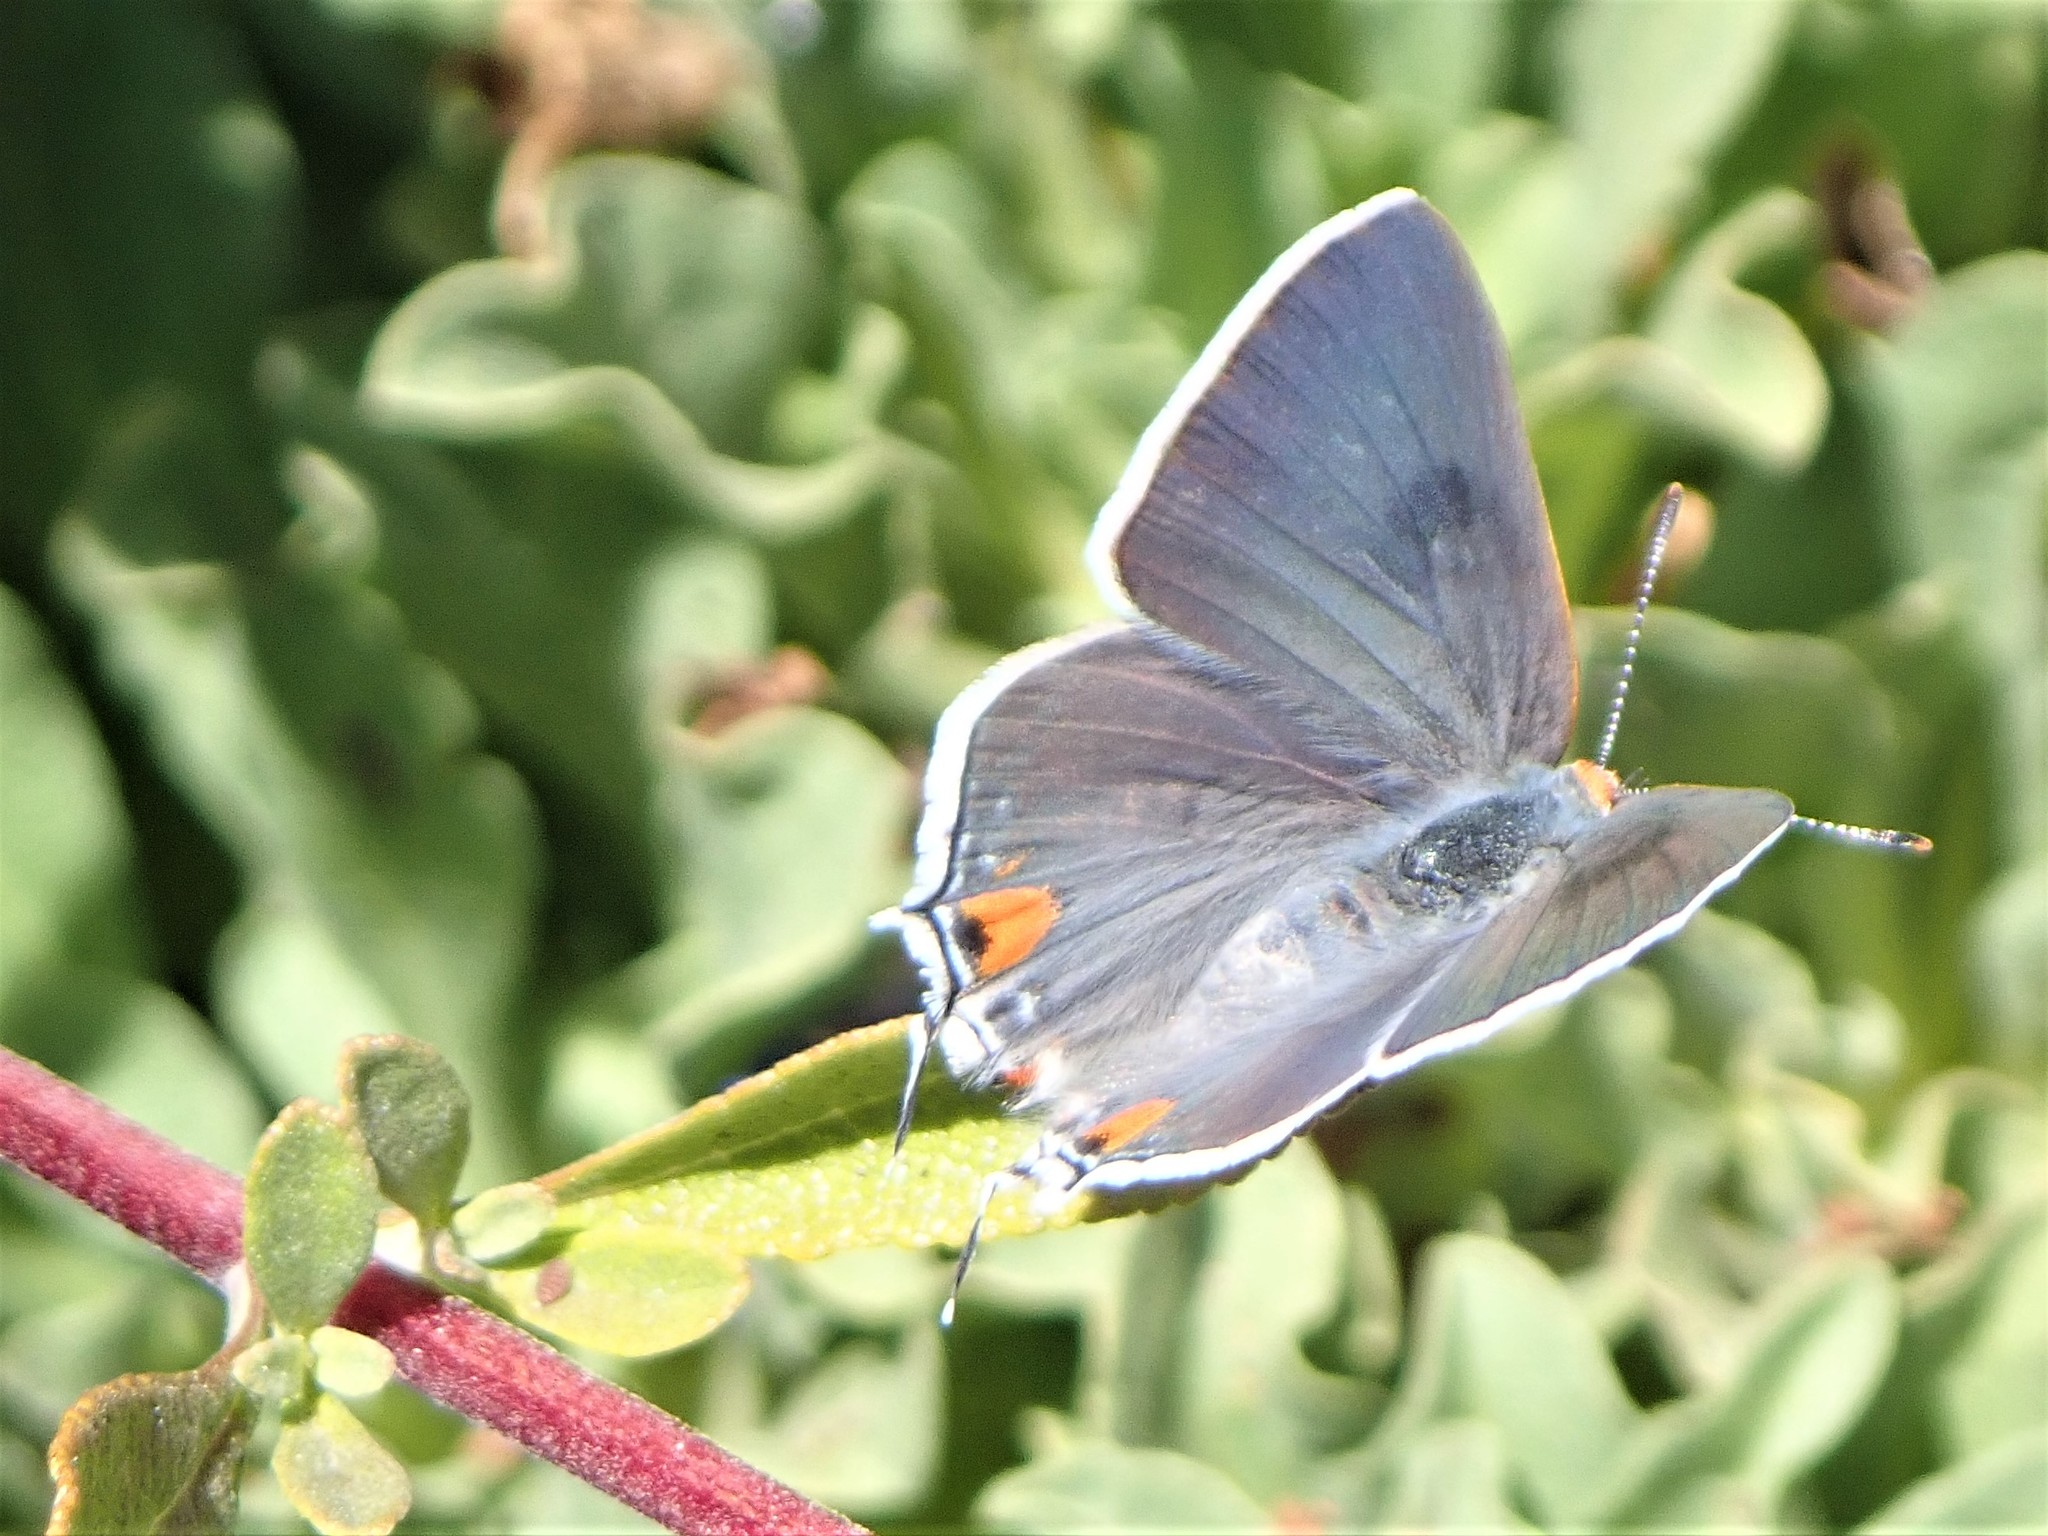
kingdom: Animalia
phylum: Arthropoda
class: Insecta
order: Lepidoptera
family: Lycaenidae
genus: Strymon
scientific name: Strymon melinus
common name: Gray hairstreak
